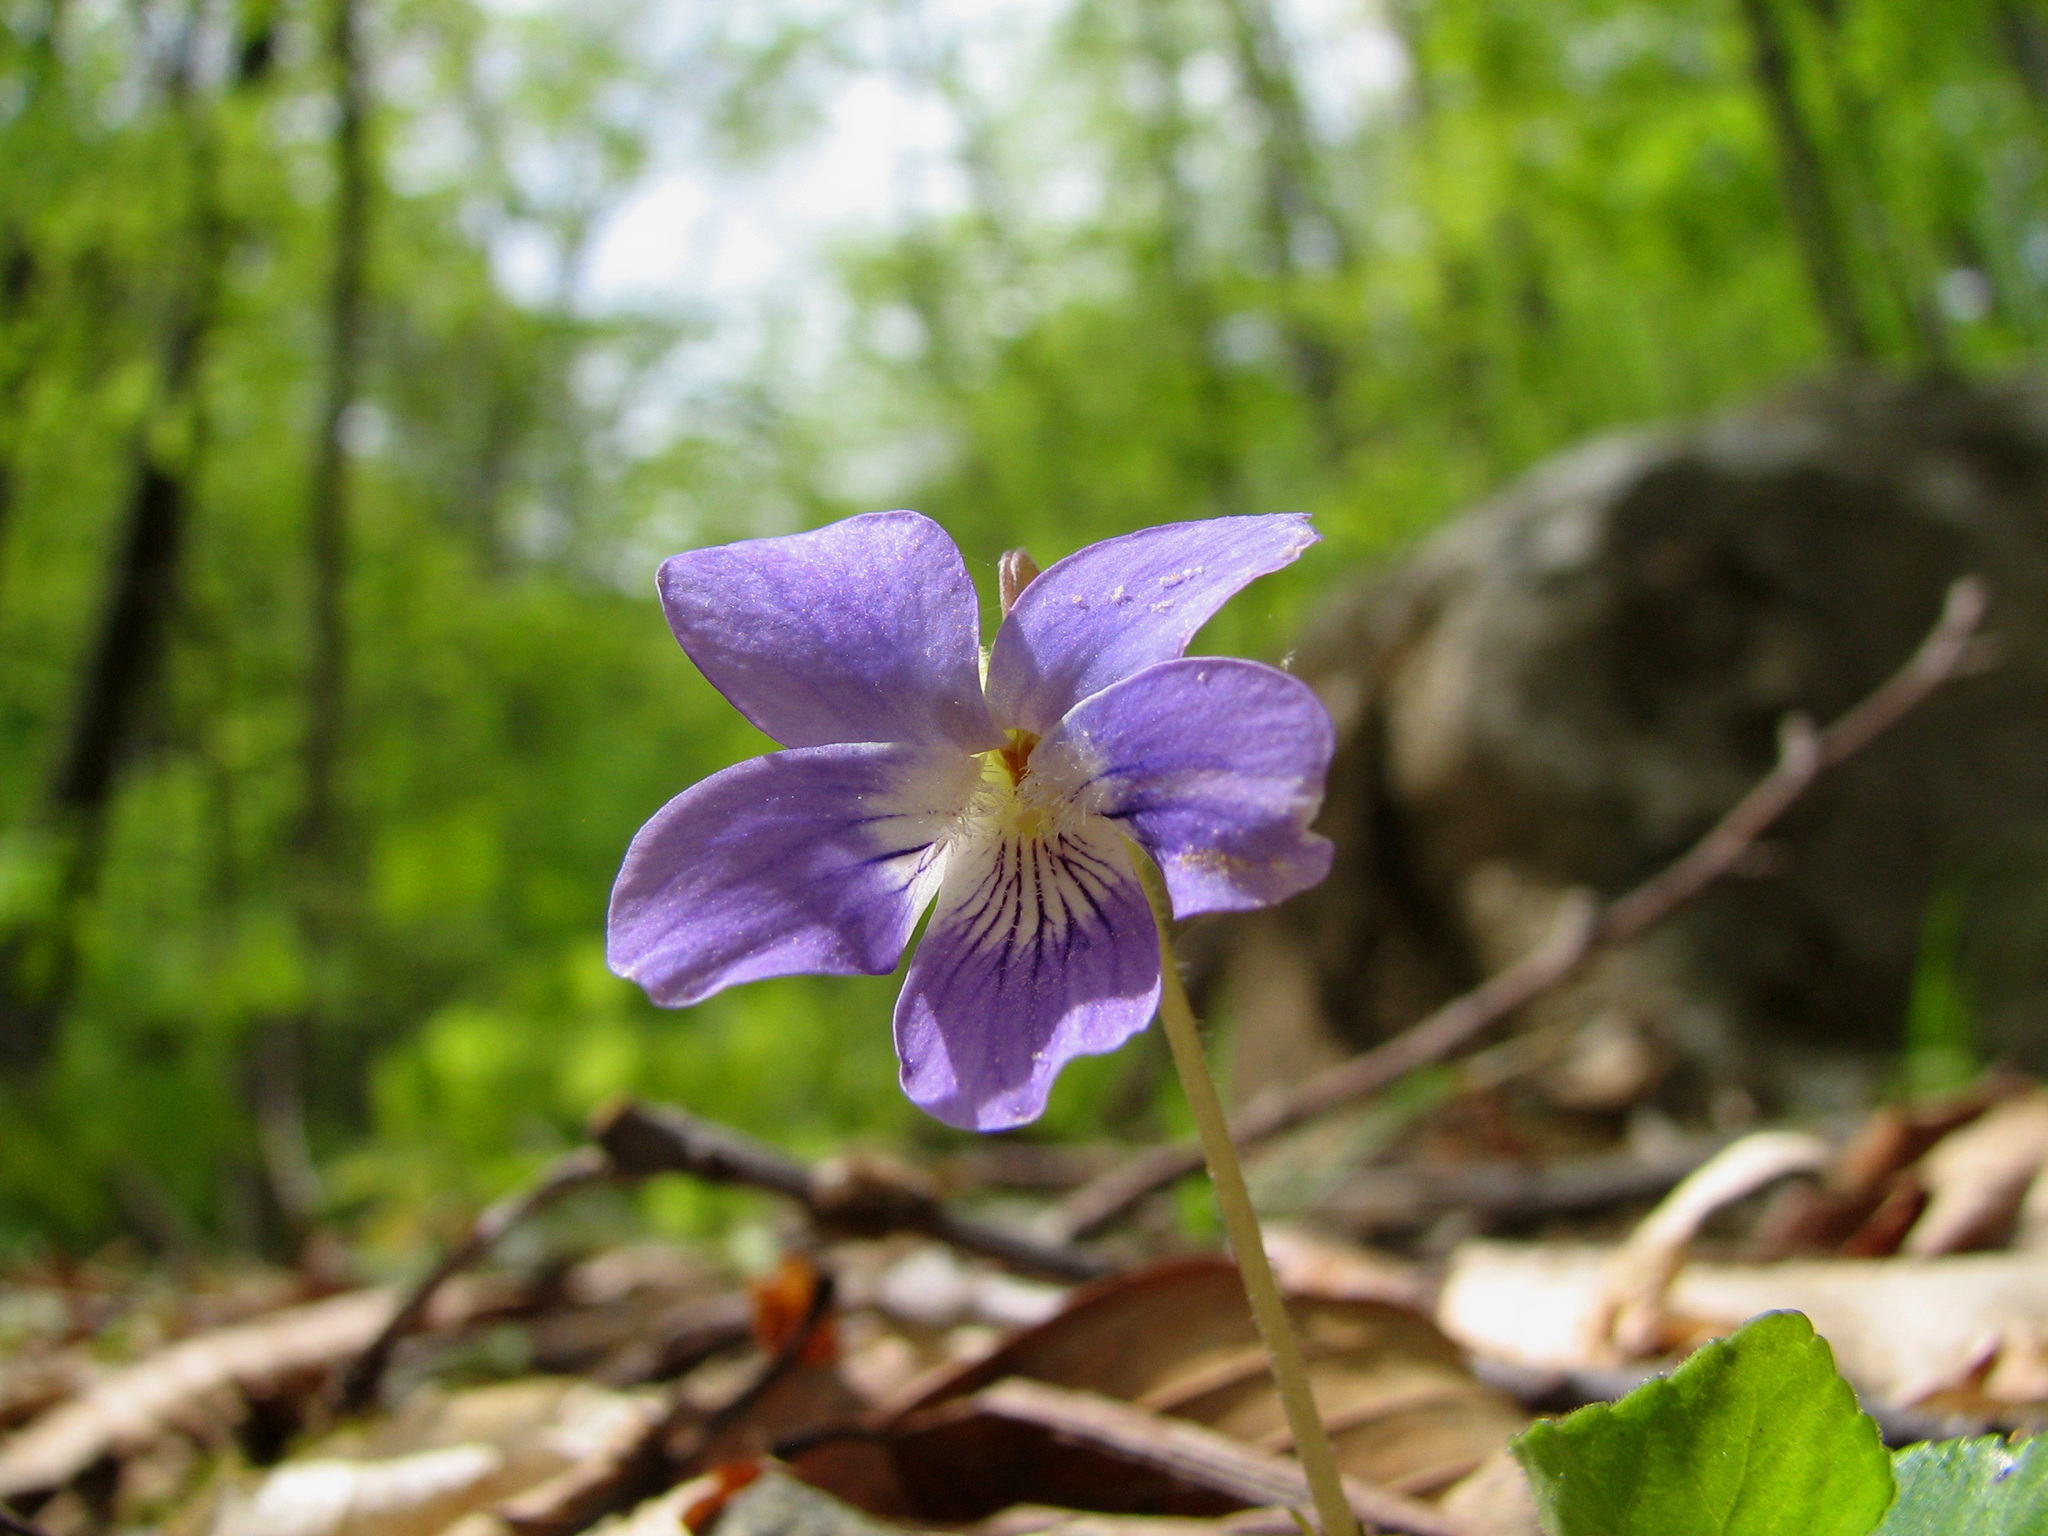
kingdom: Plantae
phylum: Tracheophyta
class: Magnoliopsida
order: Malpighiales
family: Violaceae
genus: Viola
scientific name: Viola
